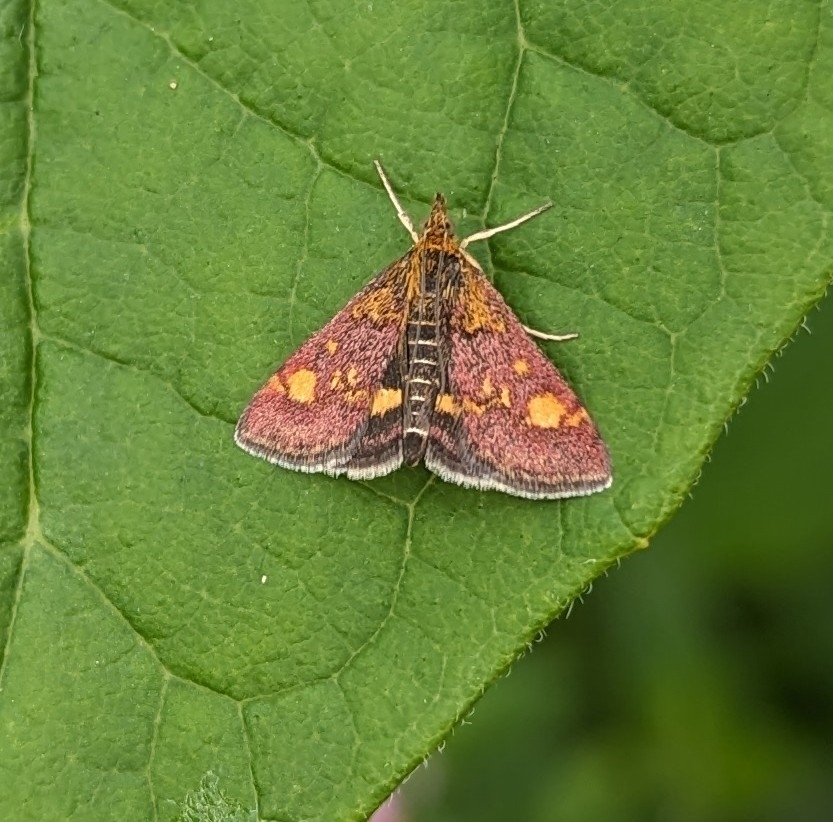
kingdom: Animalia
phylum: Arthropoda
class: Insecta
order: Lepidoptera
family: Crambidae
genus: Pyrausta
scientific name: Pyrausta aurata
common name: Small purple & gold
